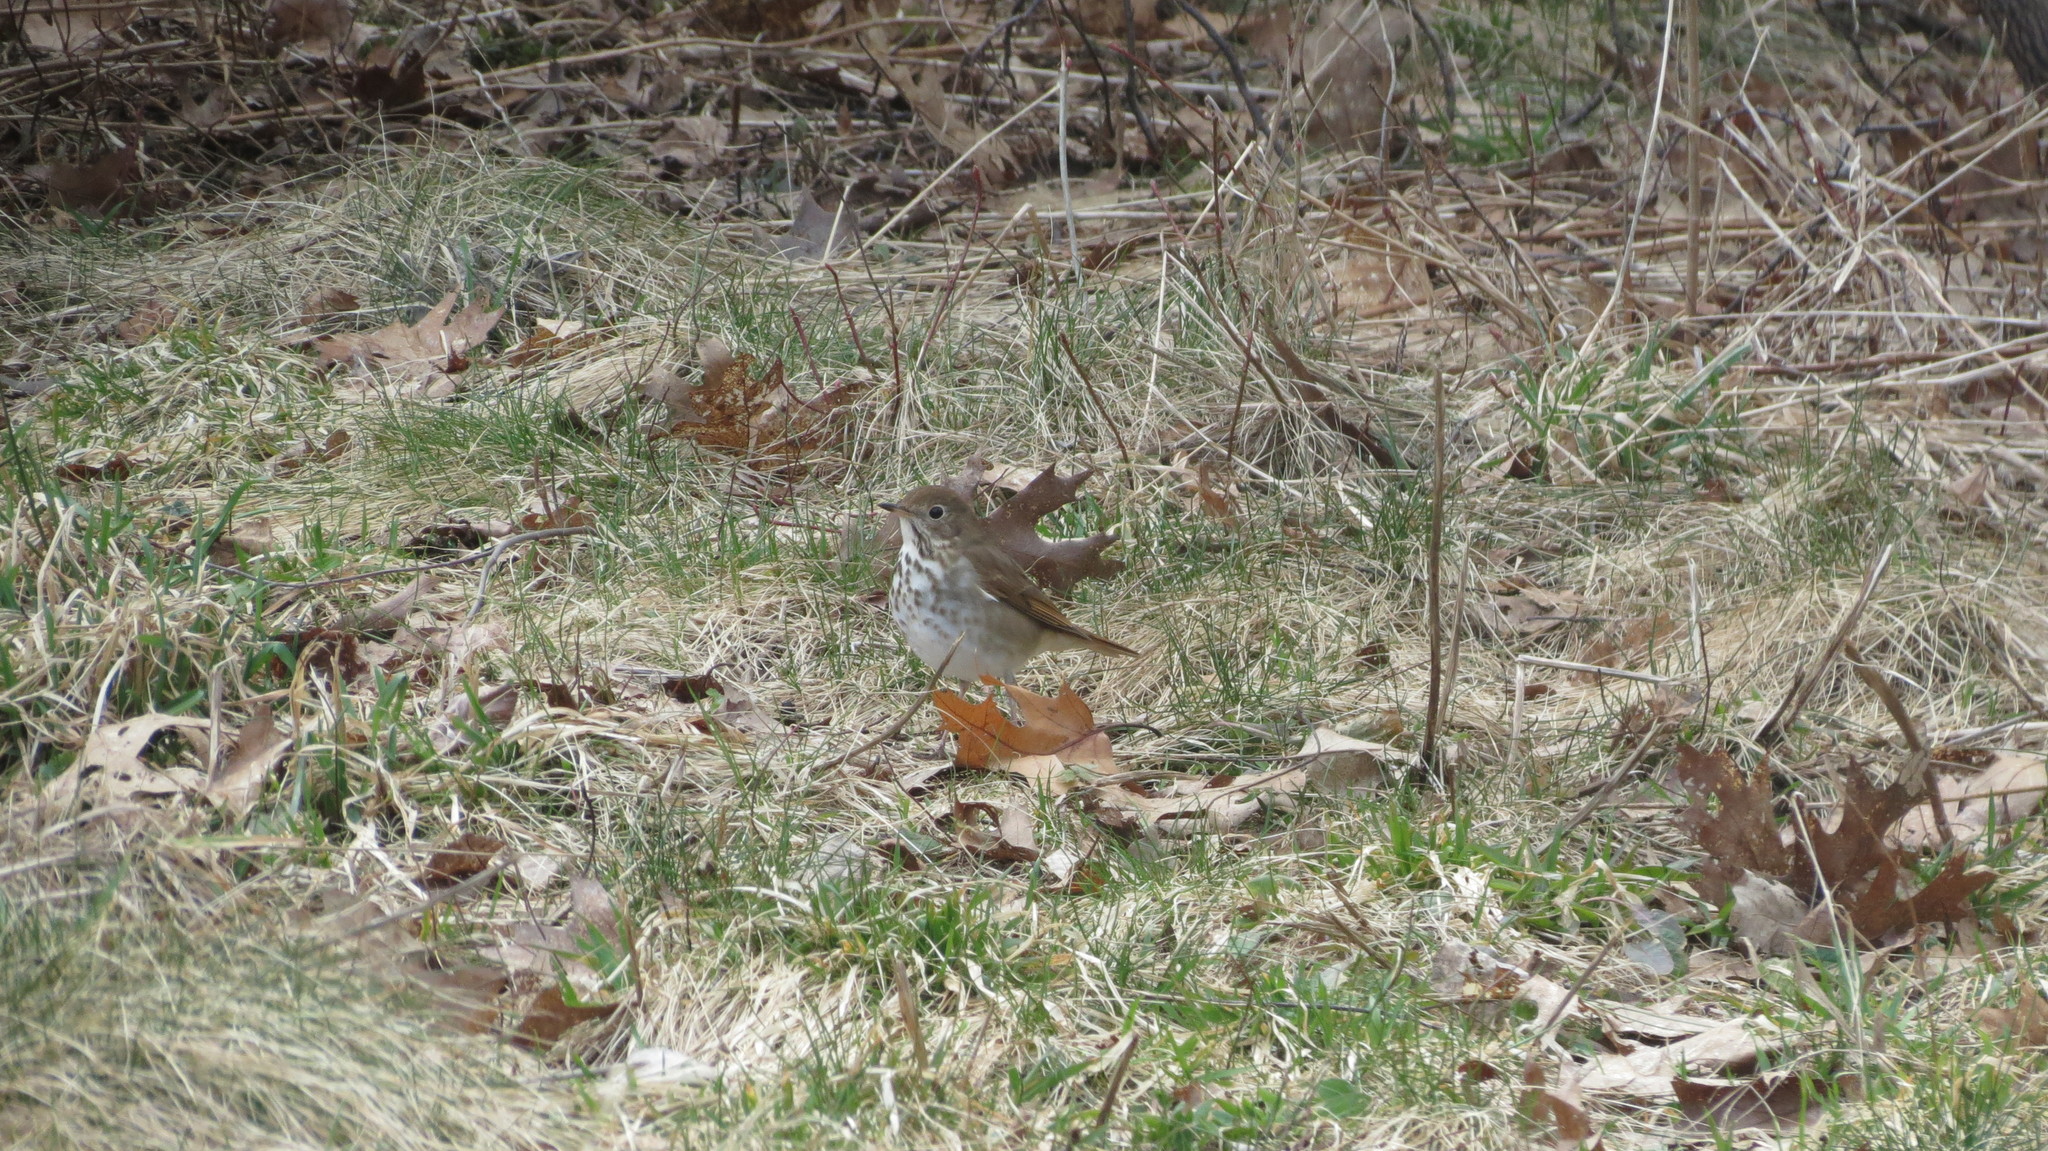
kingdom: Animalia
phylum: Chordata
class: Aves
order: Passeriformes
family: Turdidae
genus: Catharus
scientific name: Catharus guttatus
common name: Hermit thrush
